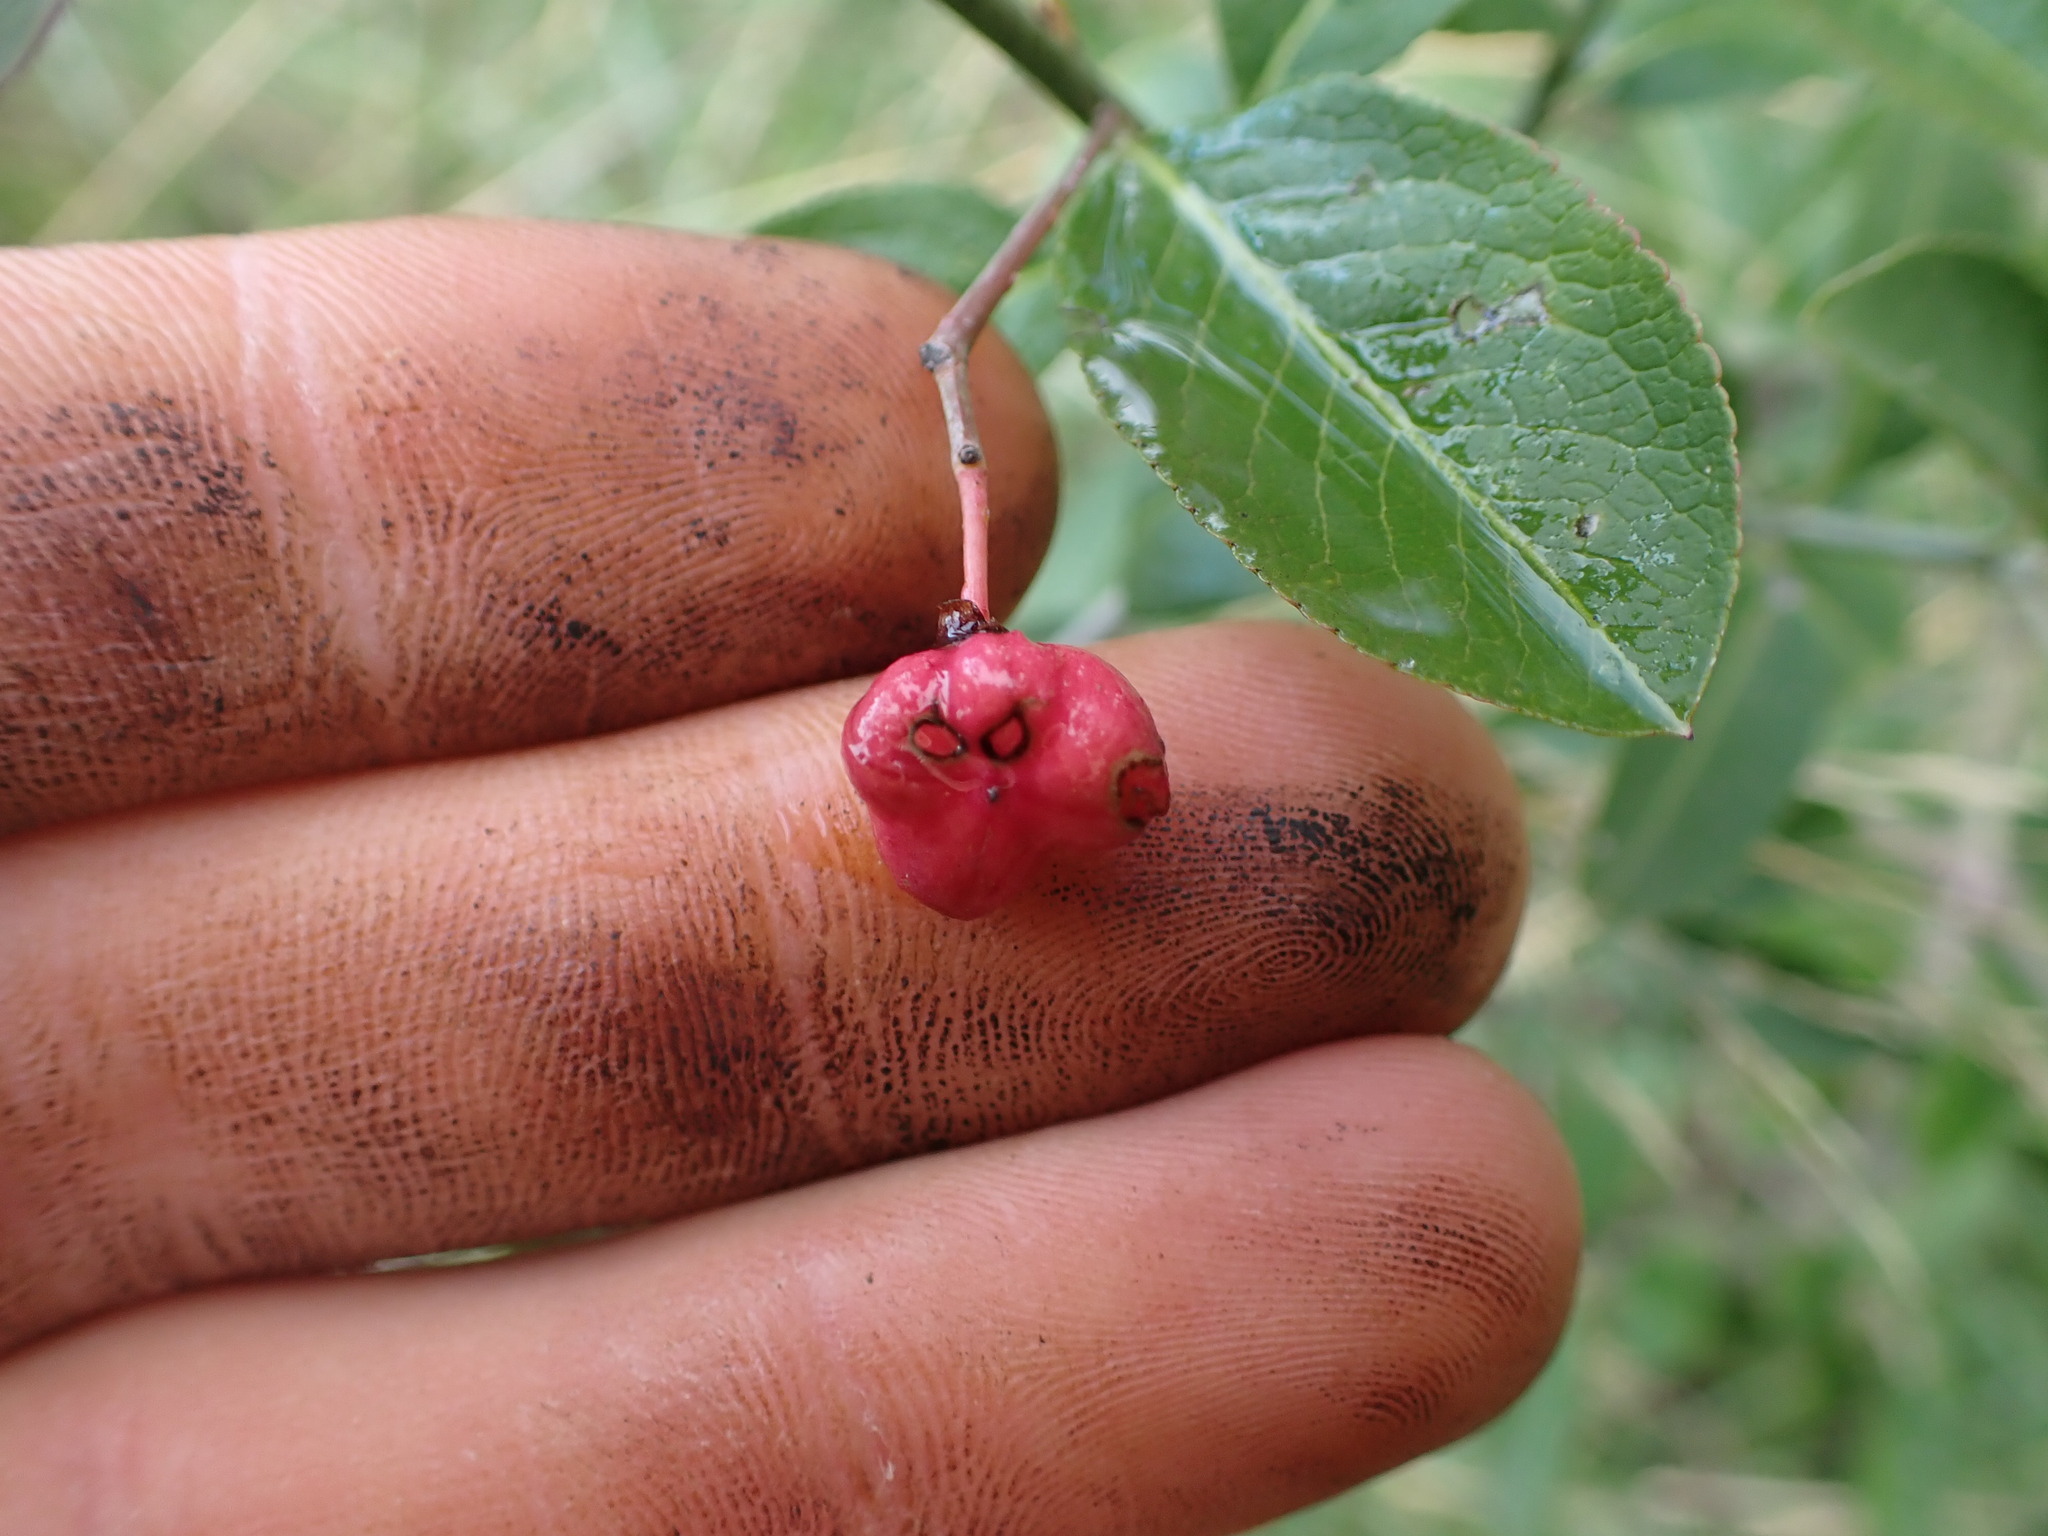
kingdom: Plantae
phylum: Tracheophyta
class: Magnoliopsida
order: Celastrales
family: Celastraceae
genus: Euonymus
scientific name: Euonymus europaeus
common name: Spindle
